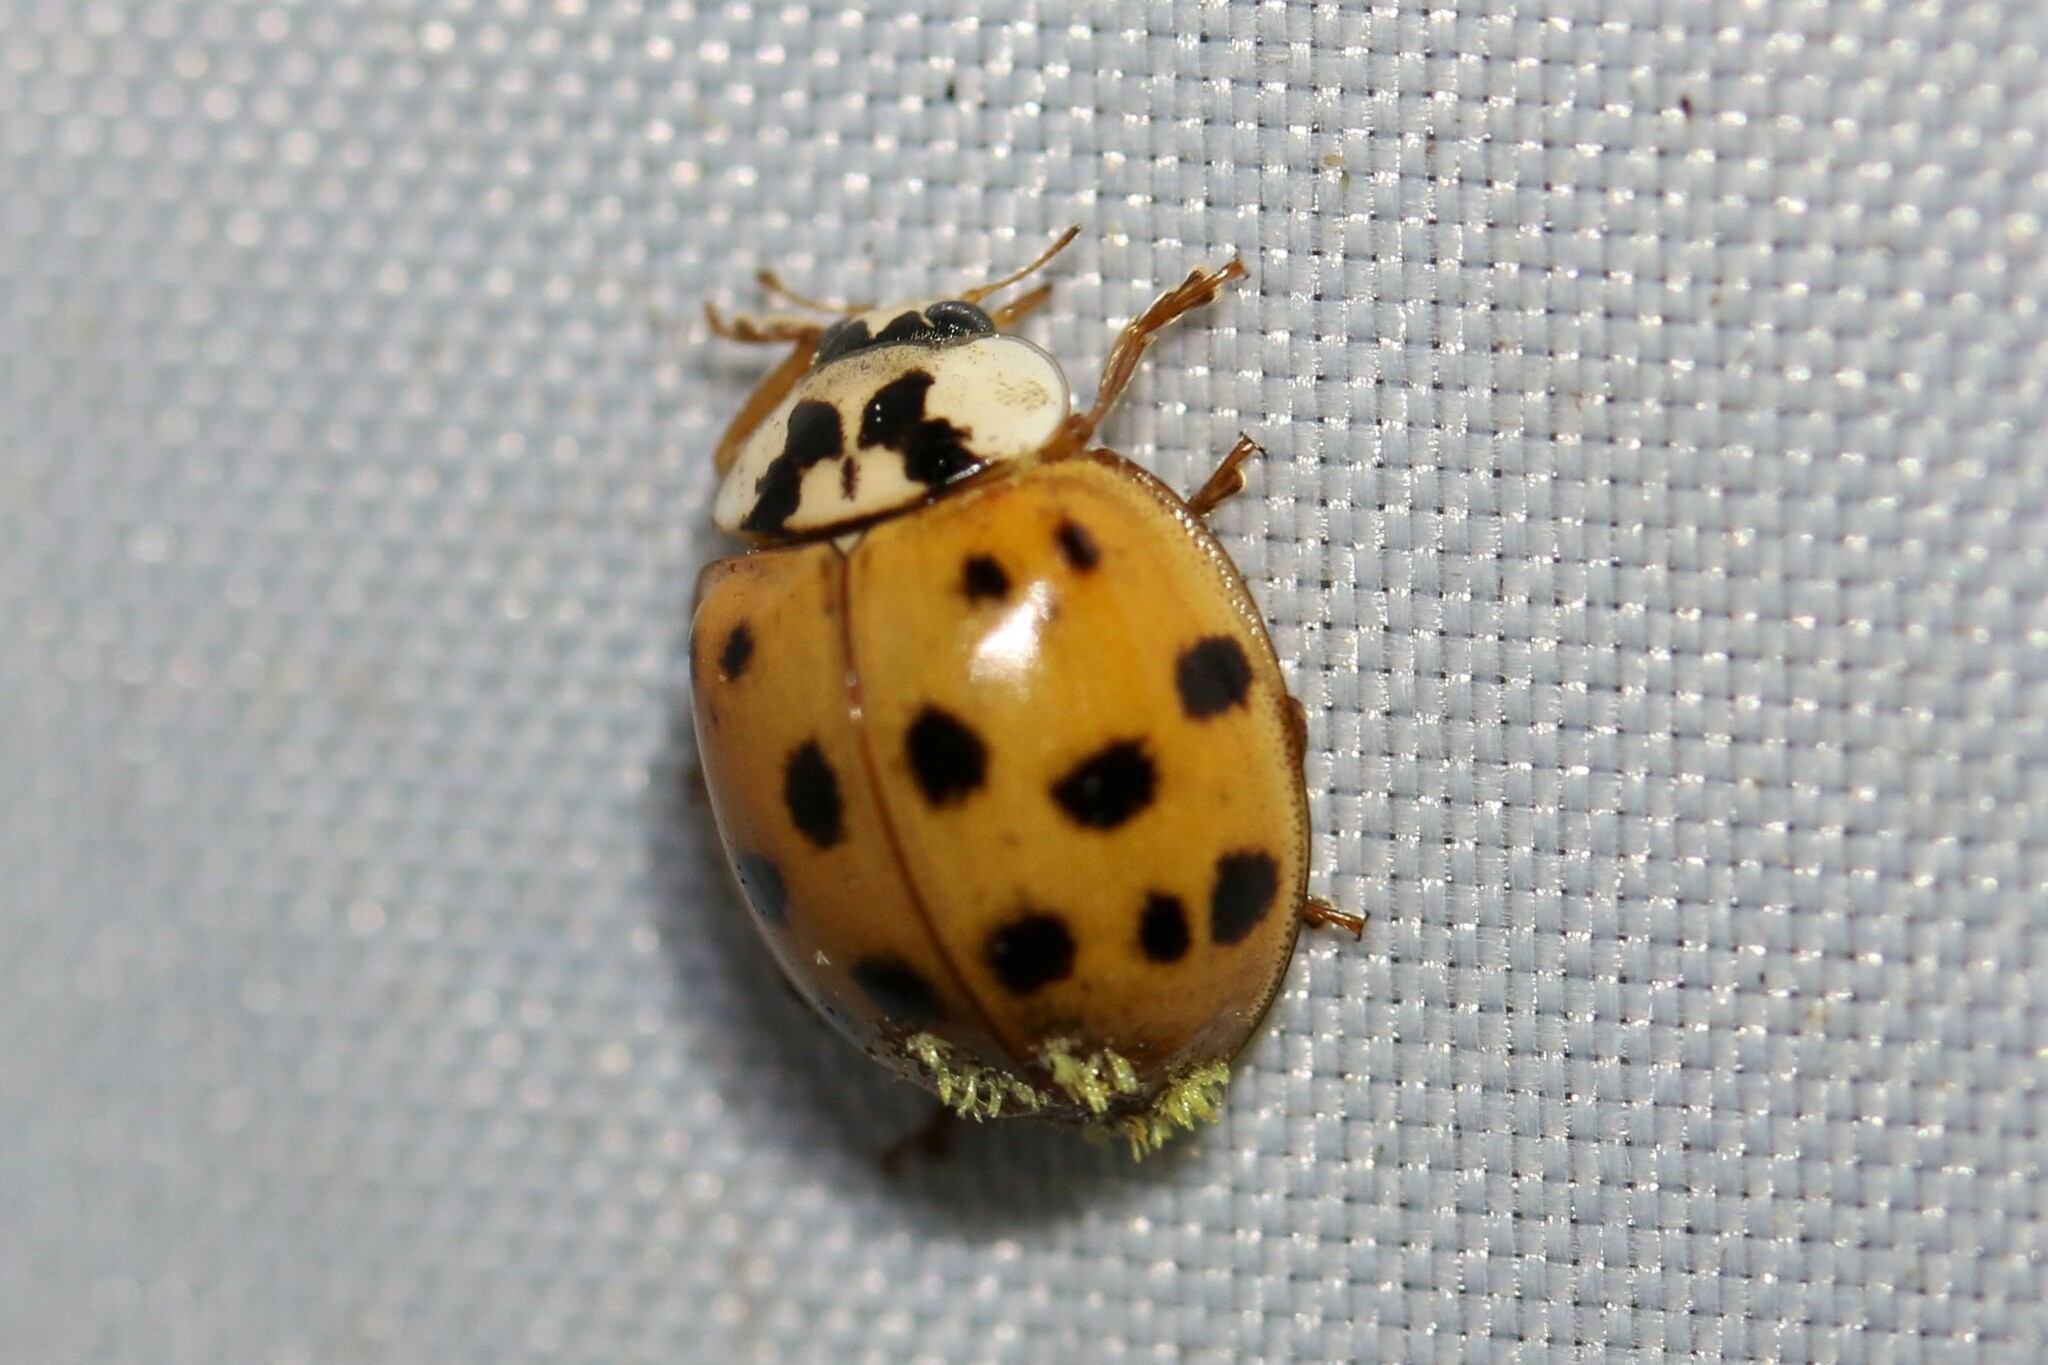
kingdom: Animalia
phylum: Arthropoda
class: Insecta
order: Coleoptera
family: Coccinellidae
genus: Harmonia
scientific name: Harmonia axyridis
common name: Harlequin ladybird
